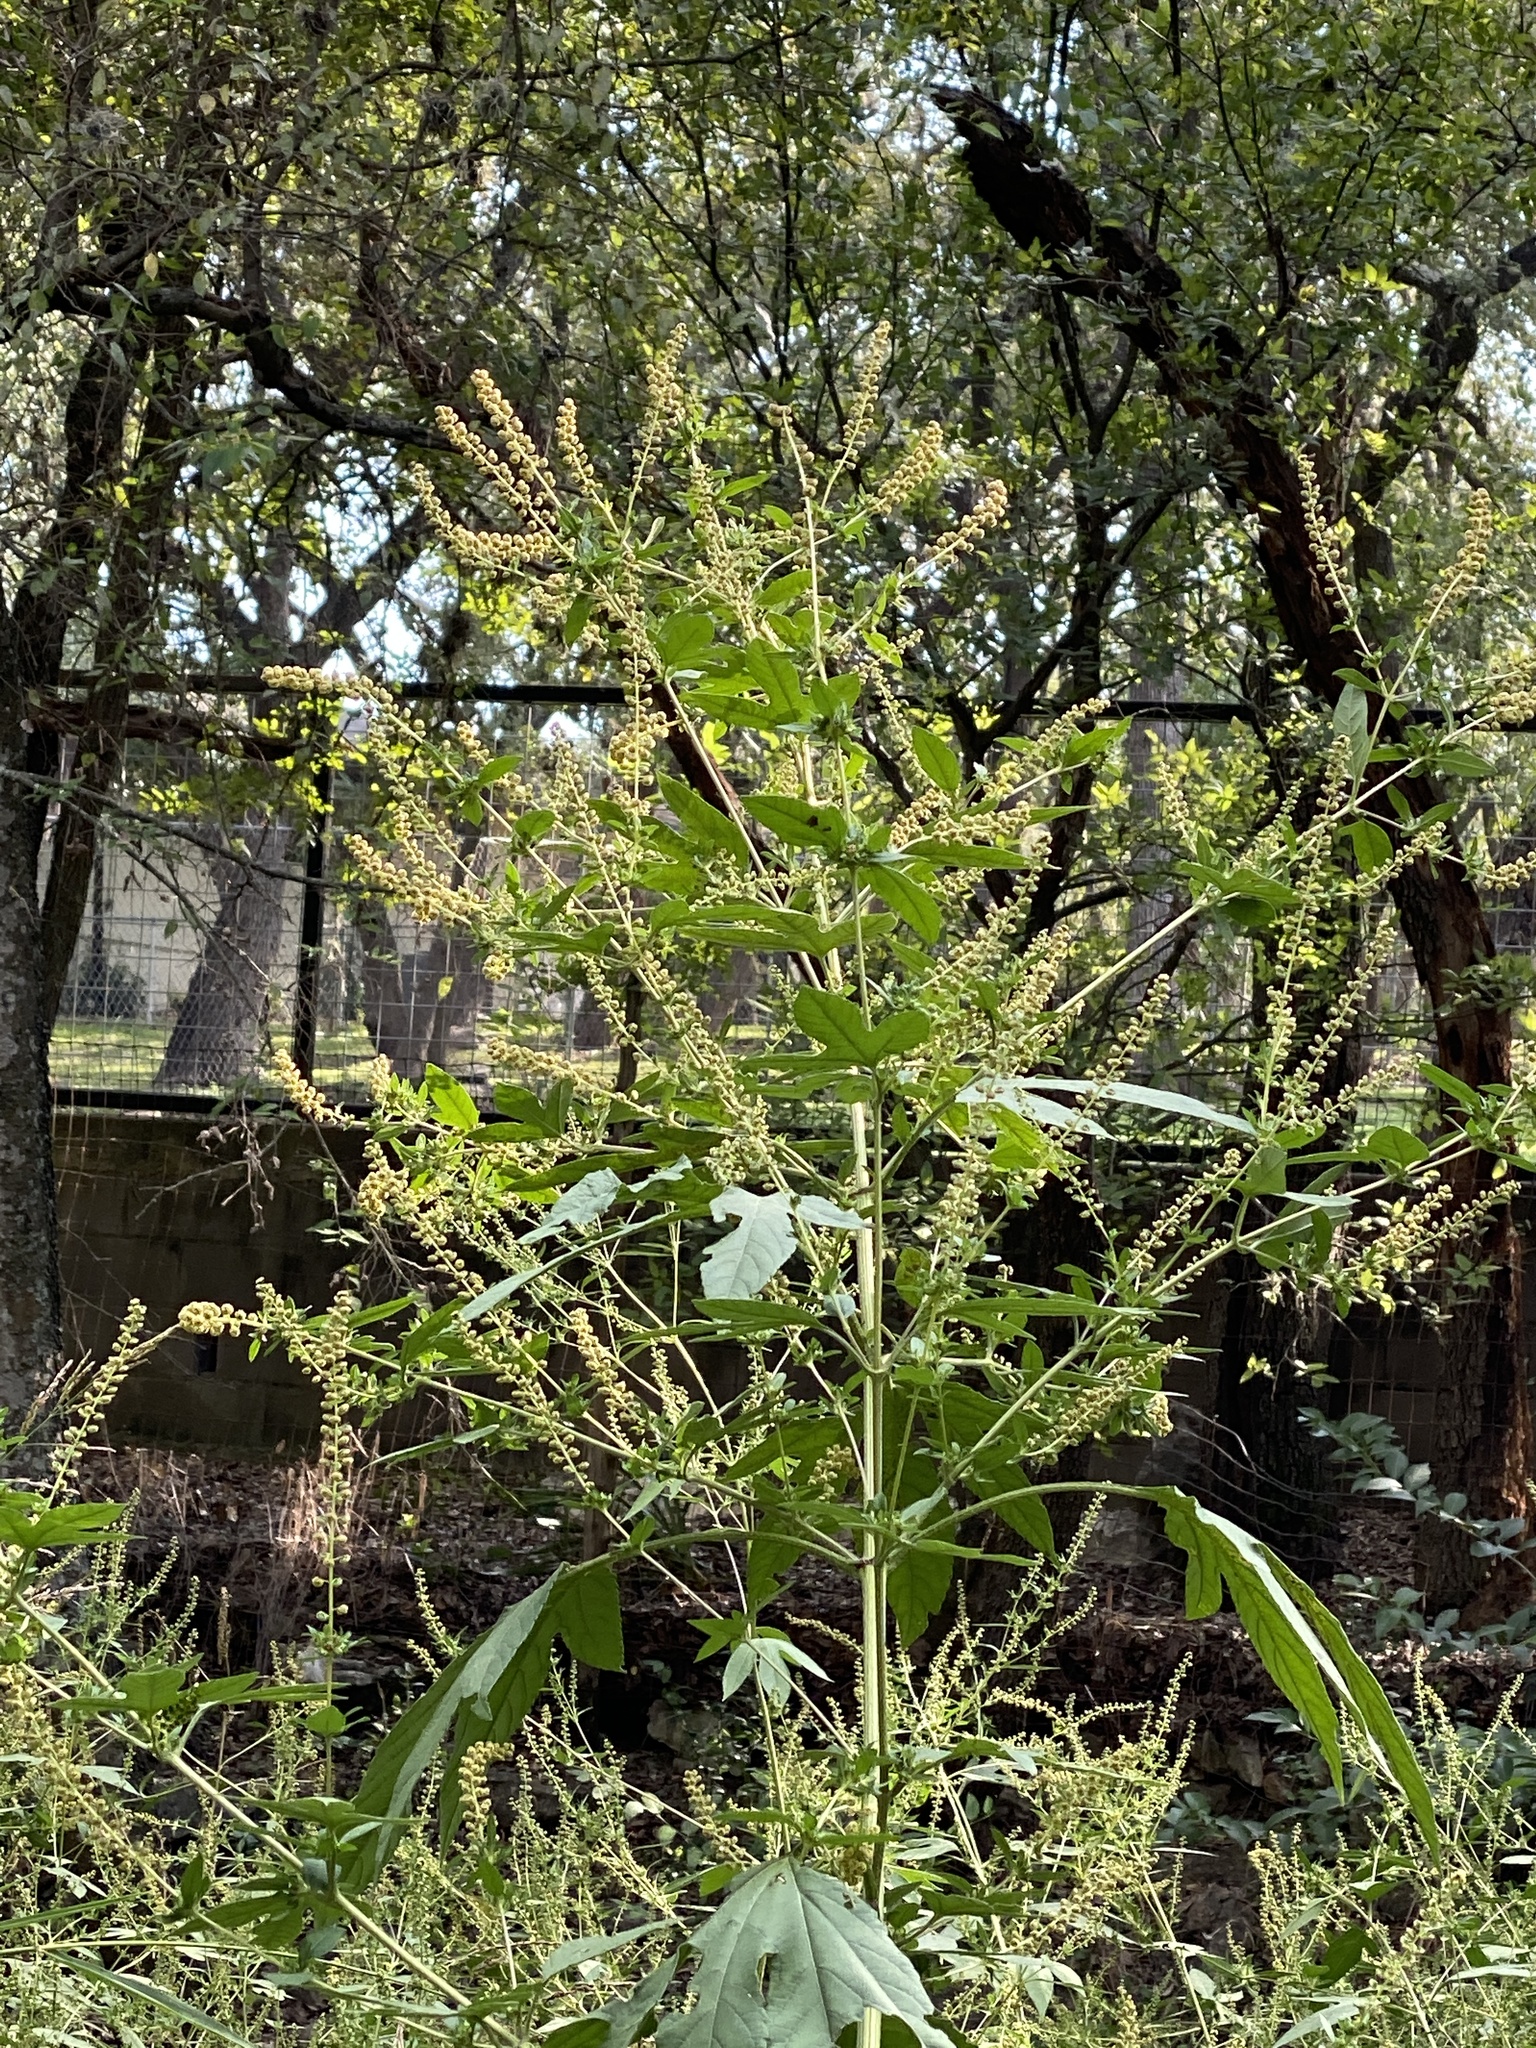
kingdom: Plantae
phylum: Tracheophyta
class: Magnoliopsida
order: Asterales
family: Asteraceae
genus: Ambrosia
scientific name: Ambrosia trifida
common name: Giant ragweed
